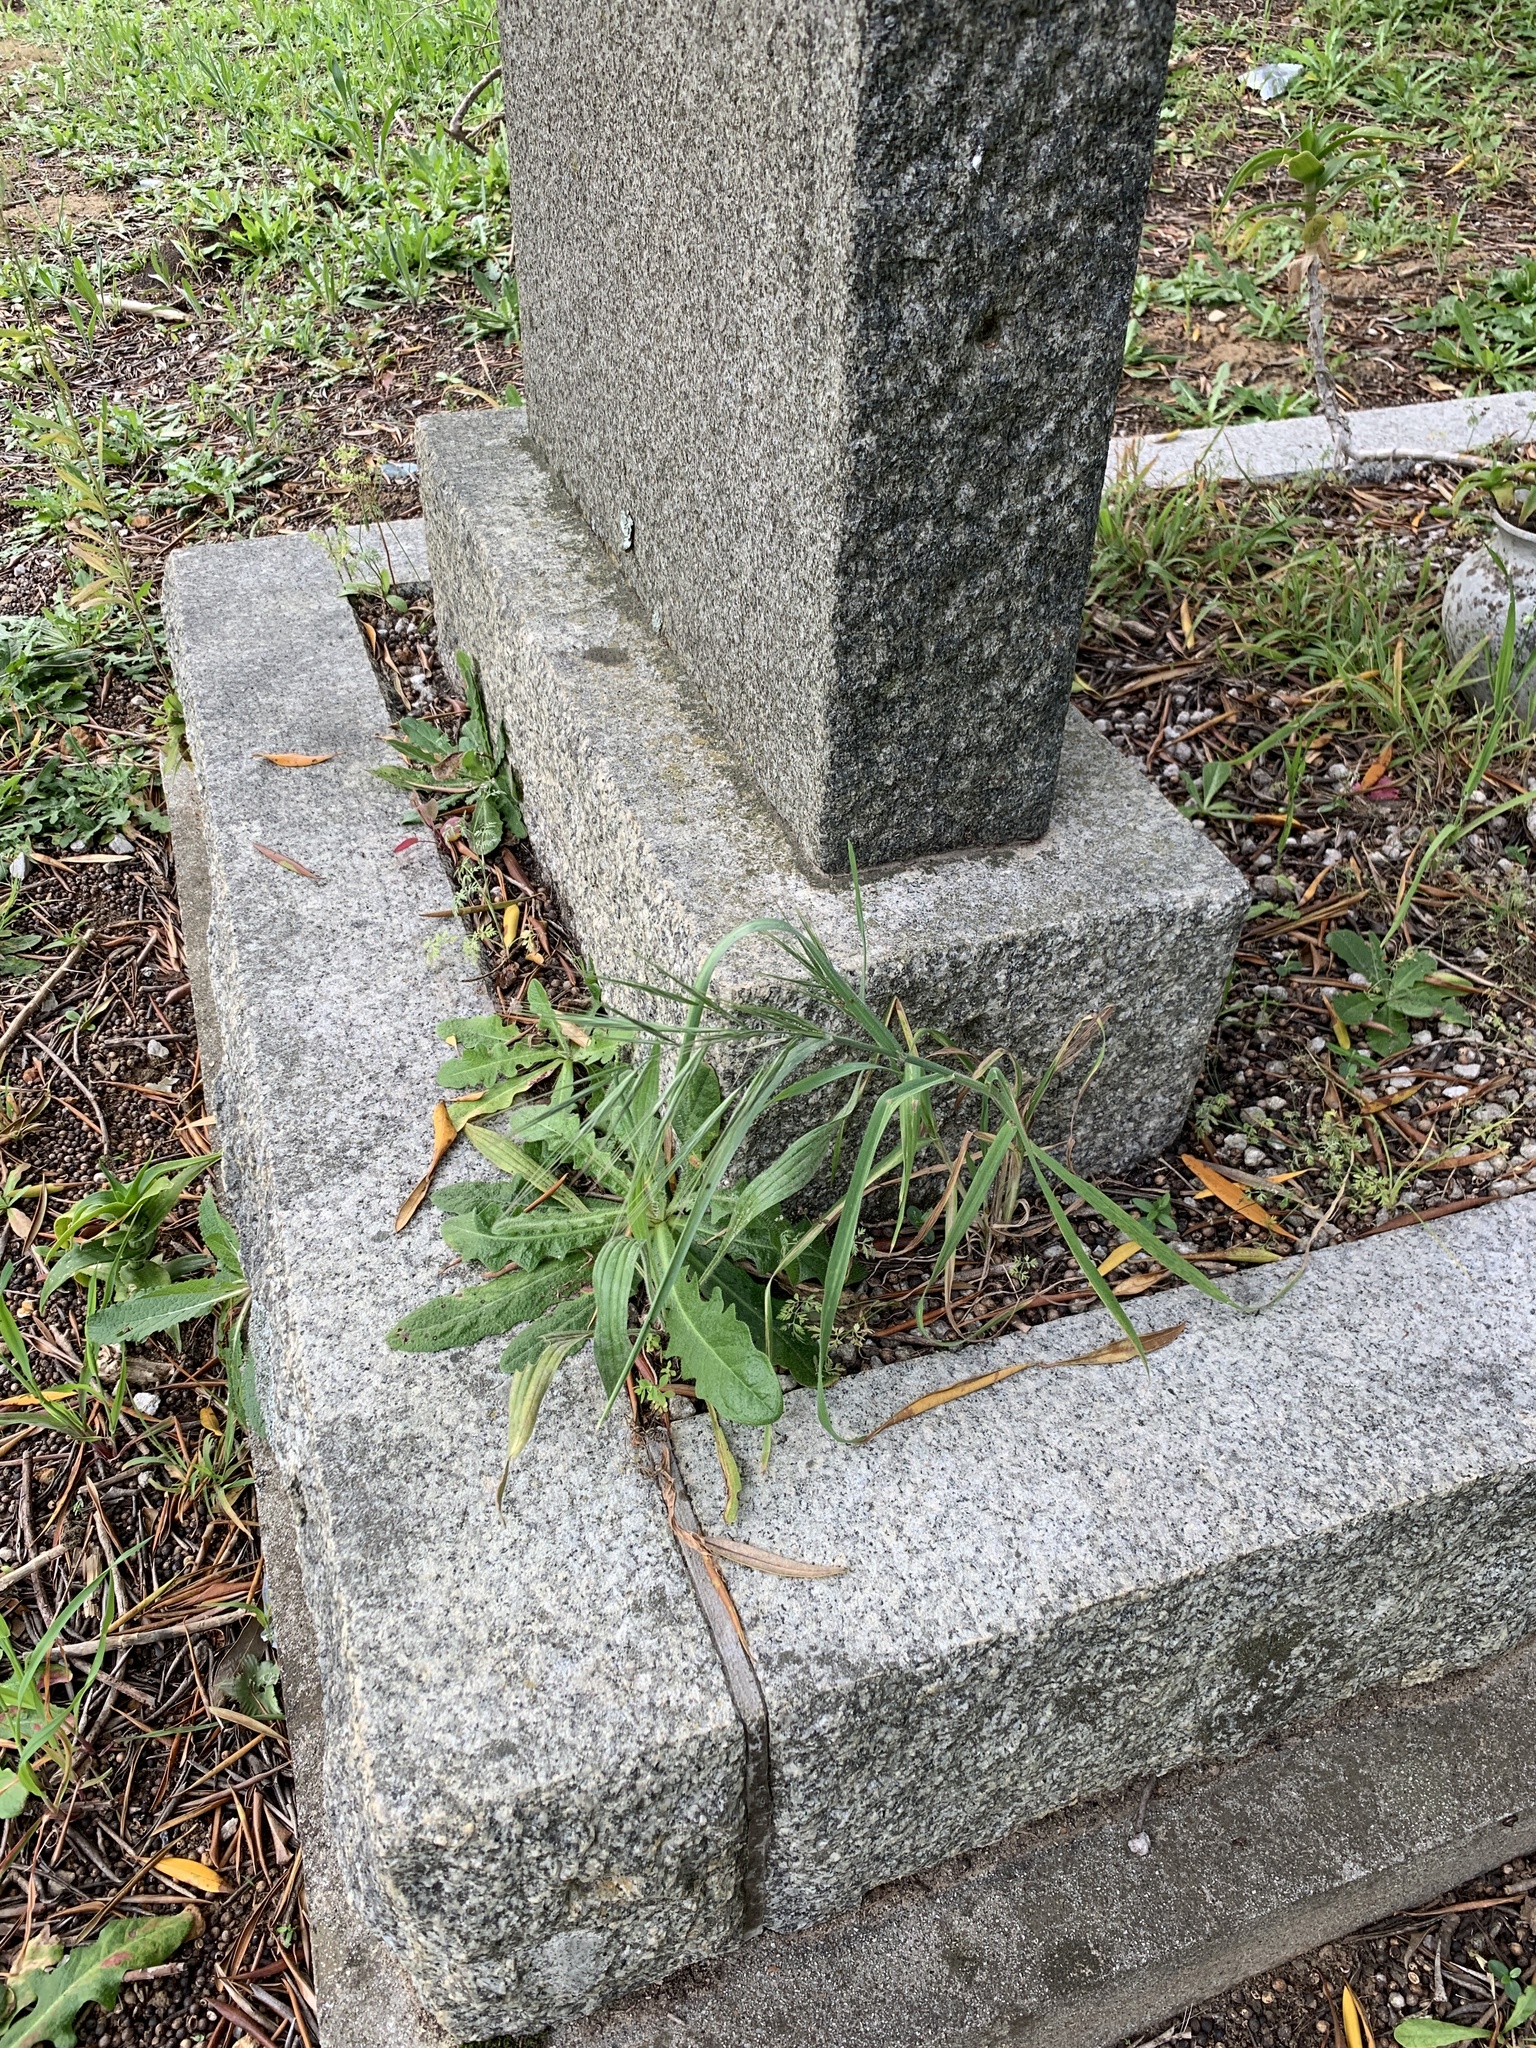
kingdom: Plantae
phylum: Tracheophyta
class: Liliopsida
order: Poales
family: Poaceae
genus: Bromus
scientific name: Bromus diandrus
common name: Ripgut brome
